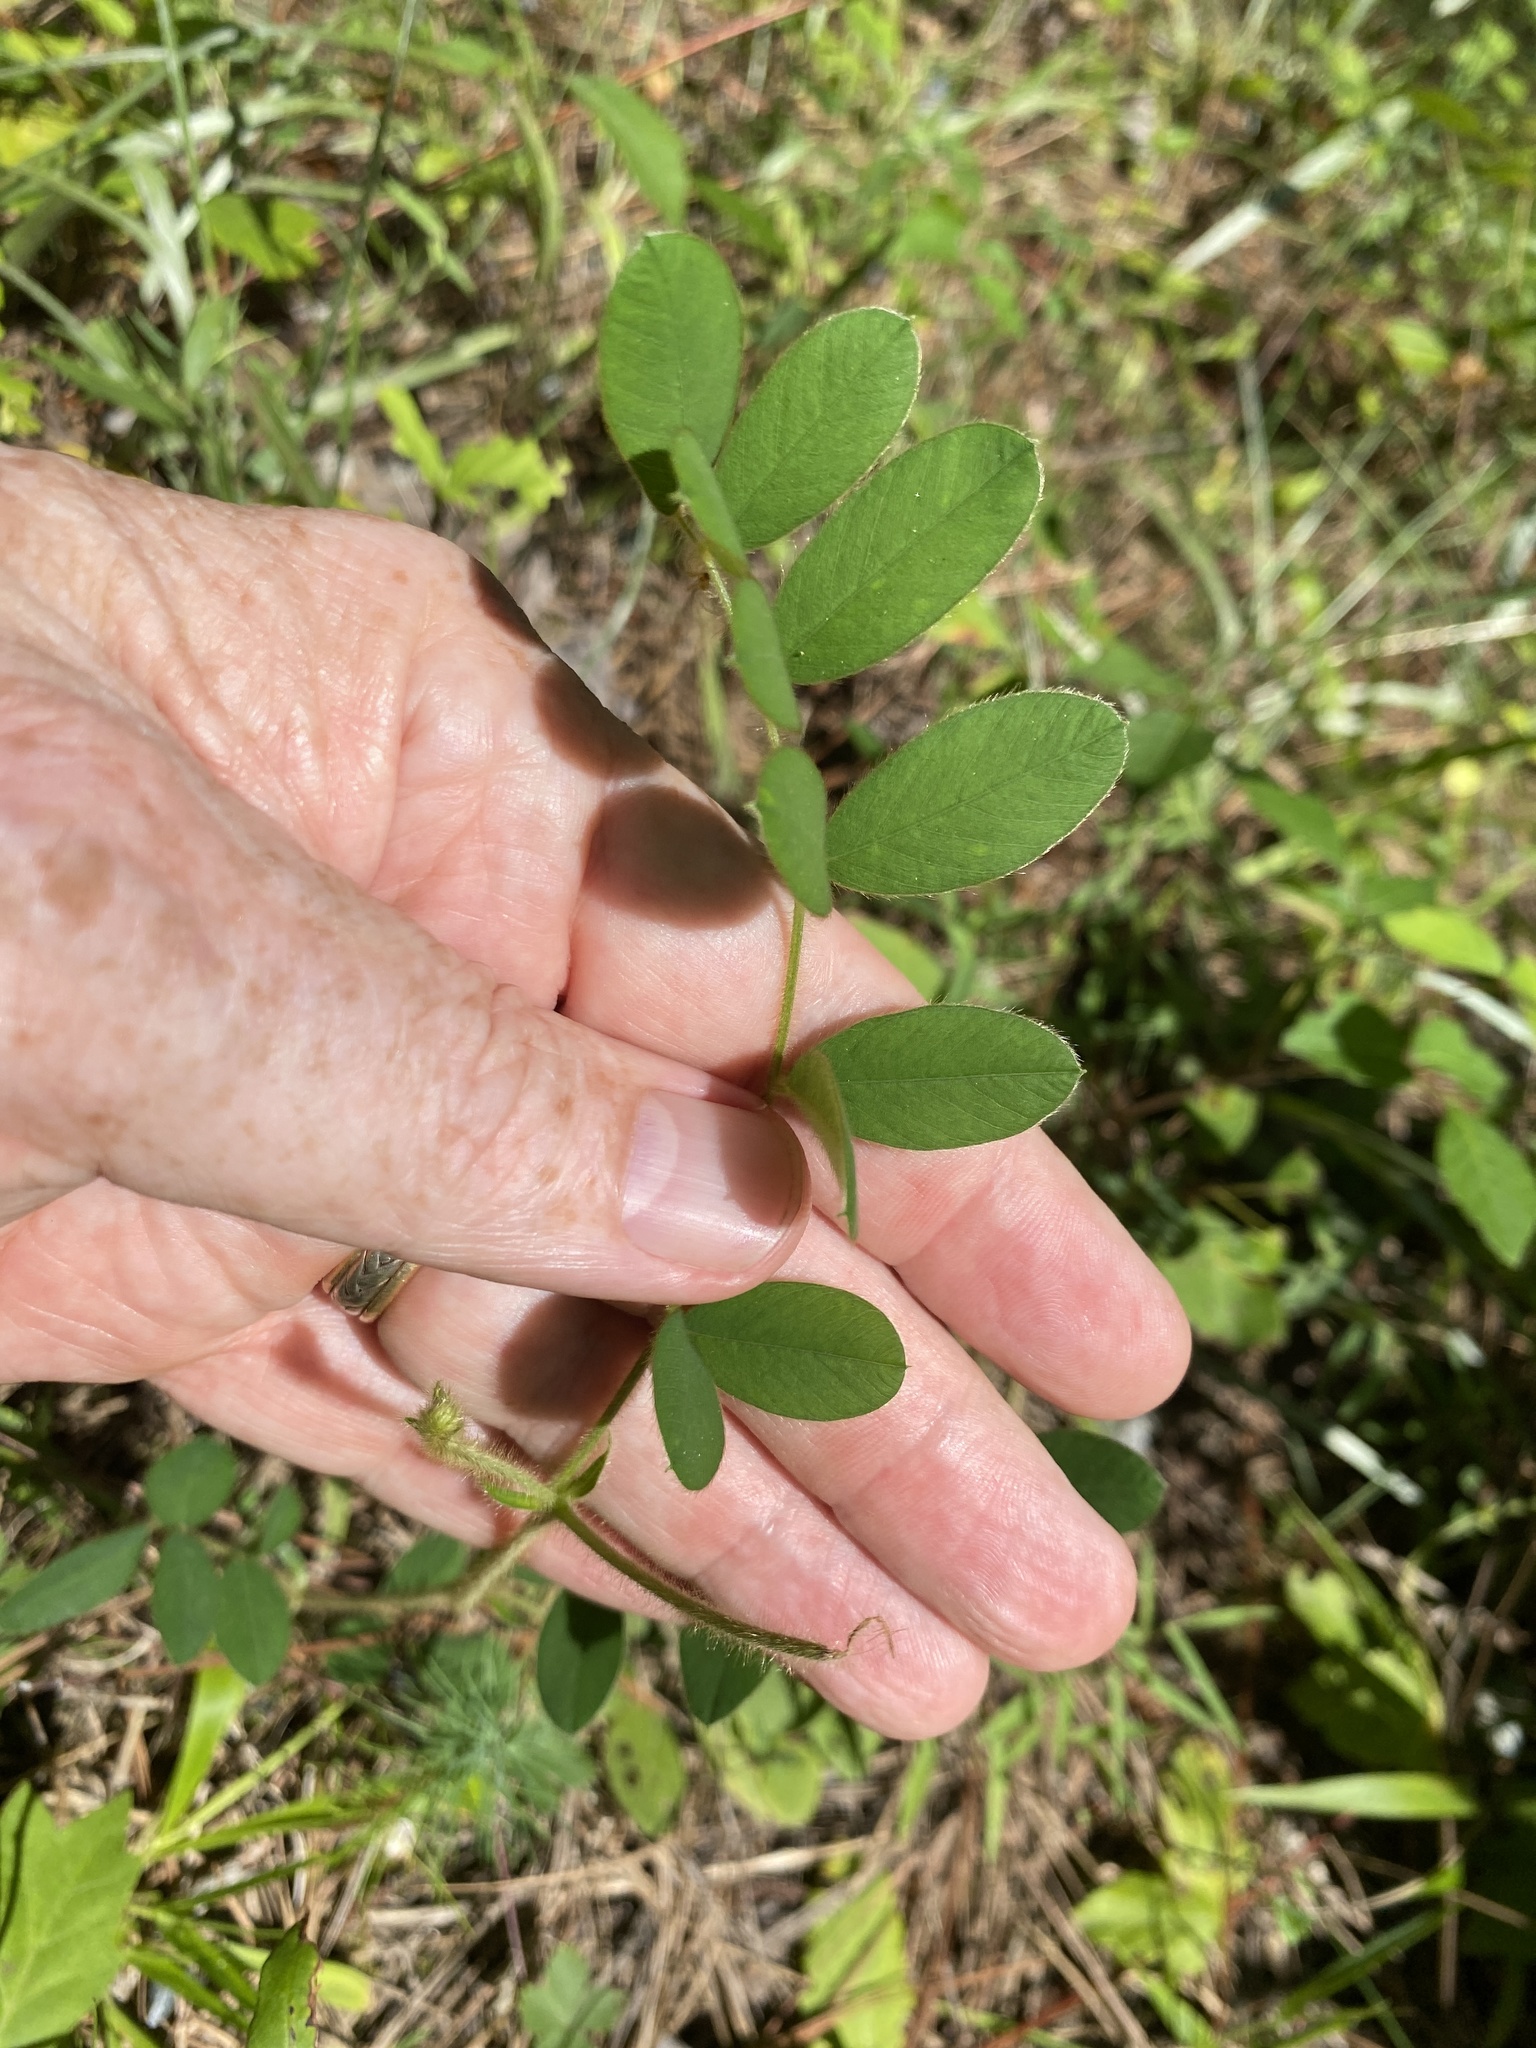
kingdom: Plantae
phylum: Tracheophyta
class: Magnoliopsida
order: Fabales
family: Fabaceae
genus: Tephrosia
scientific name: Tephrosia spicata
